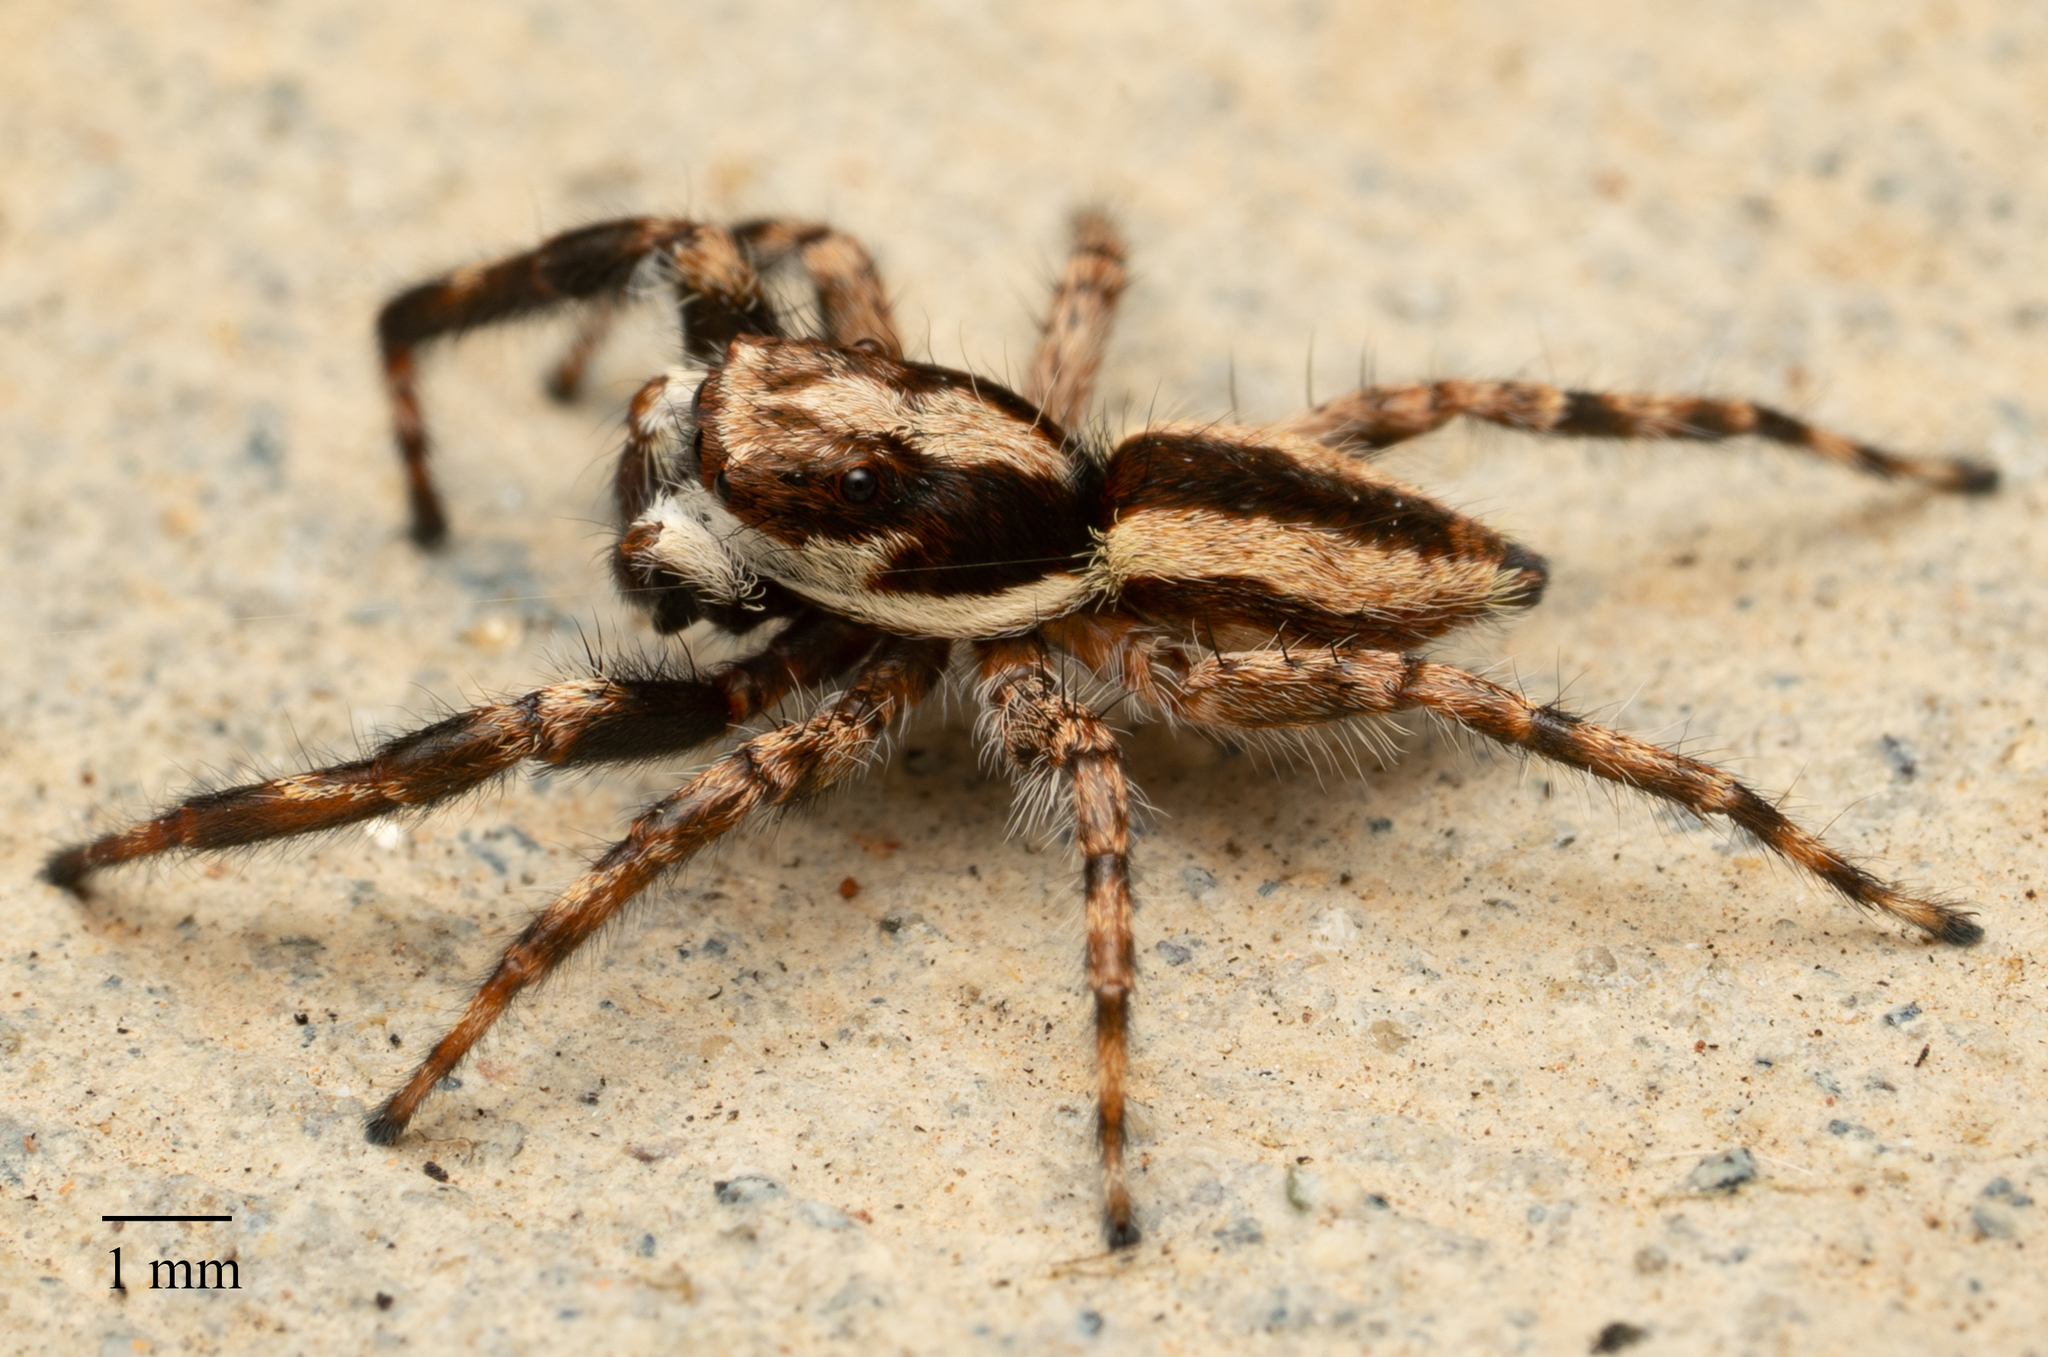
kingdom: Animalia
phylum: Arthropoda
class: Arachnida
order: Araneae
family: Salticidae
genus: Menemerus
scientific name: Menemerus bivittatus
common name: Gray wall jumper
